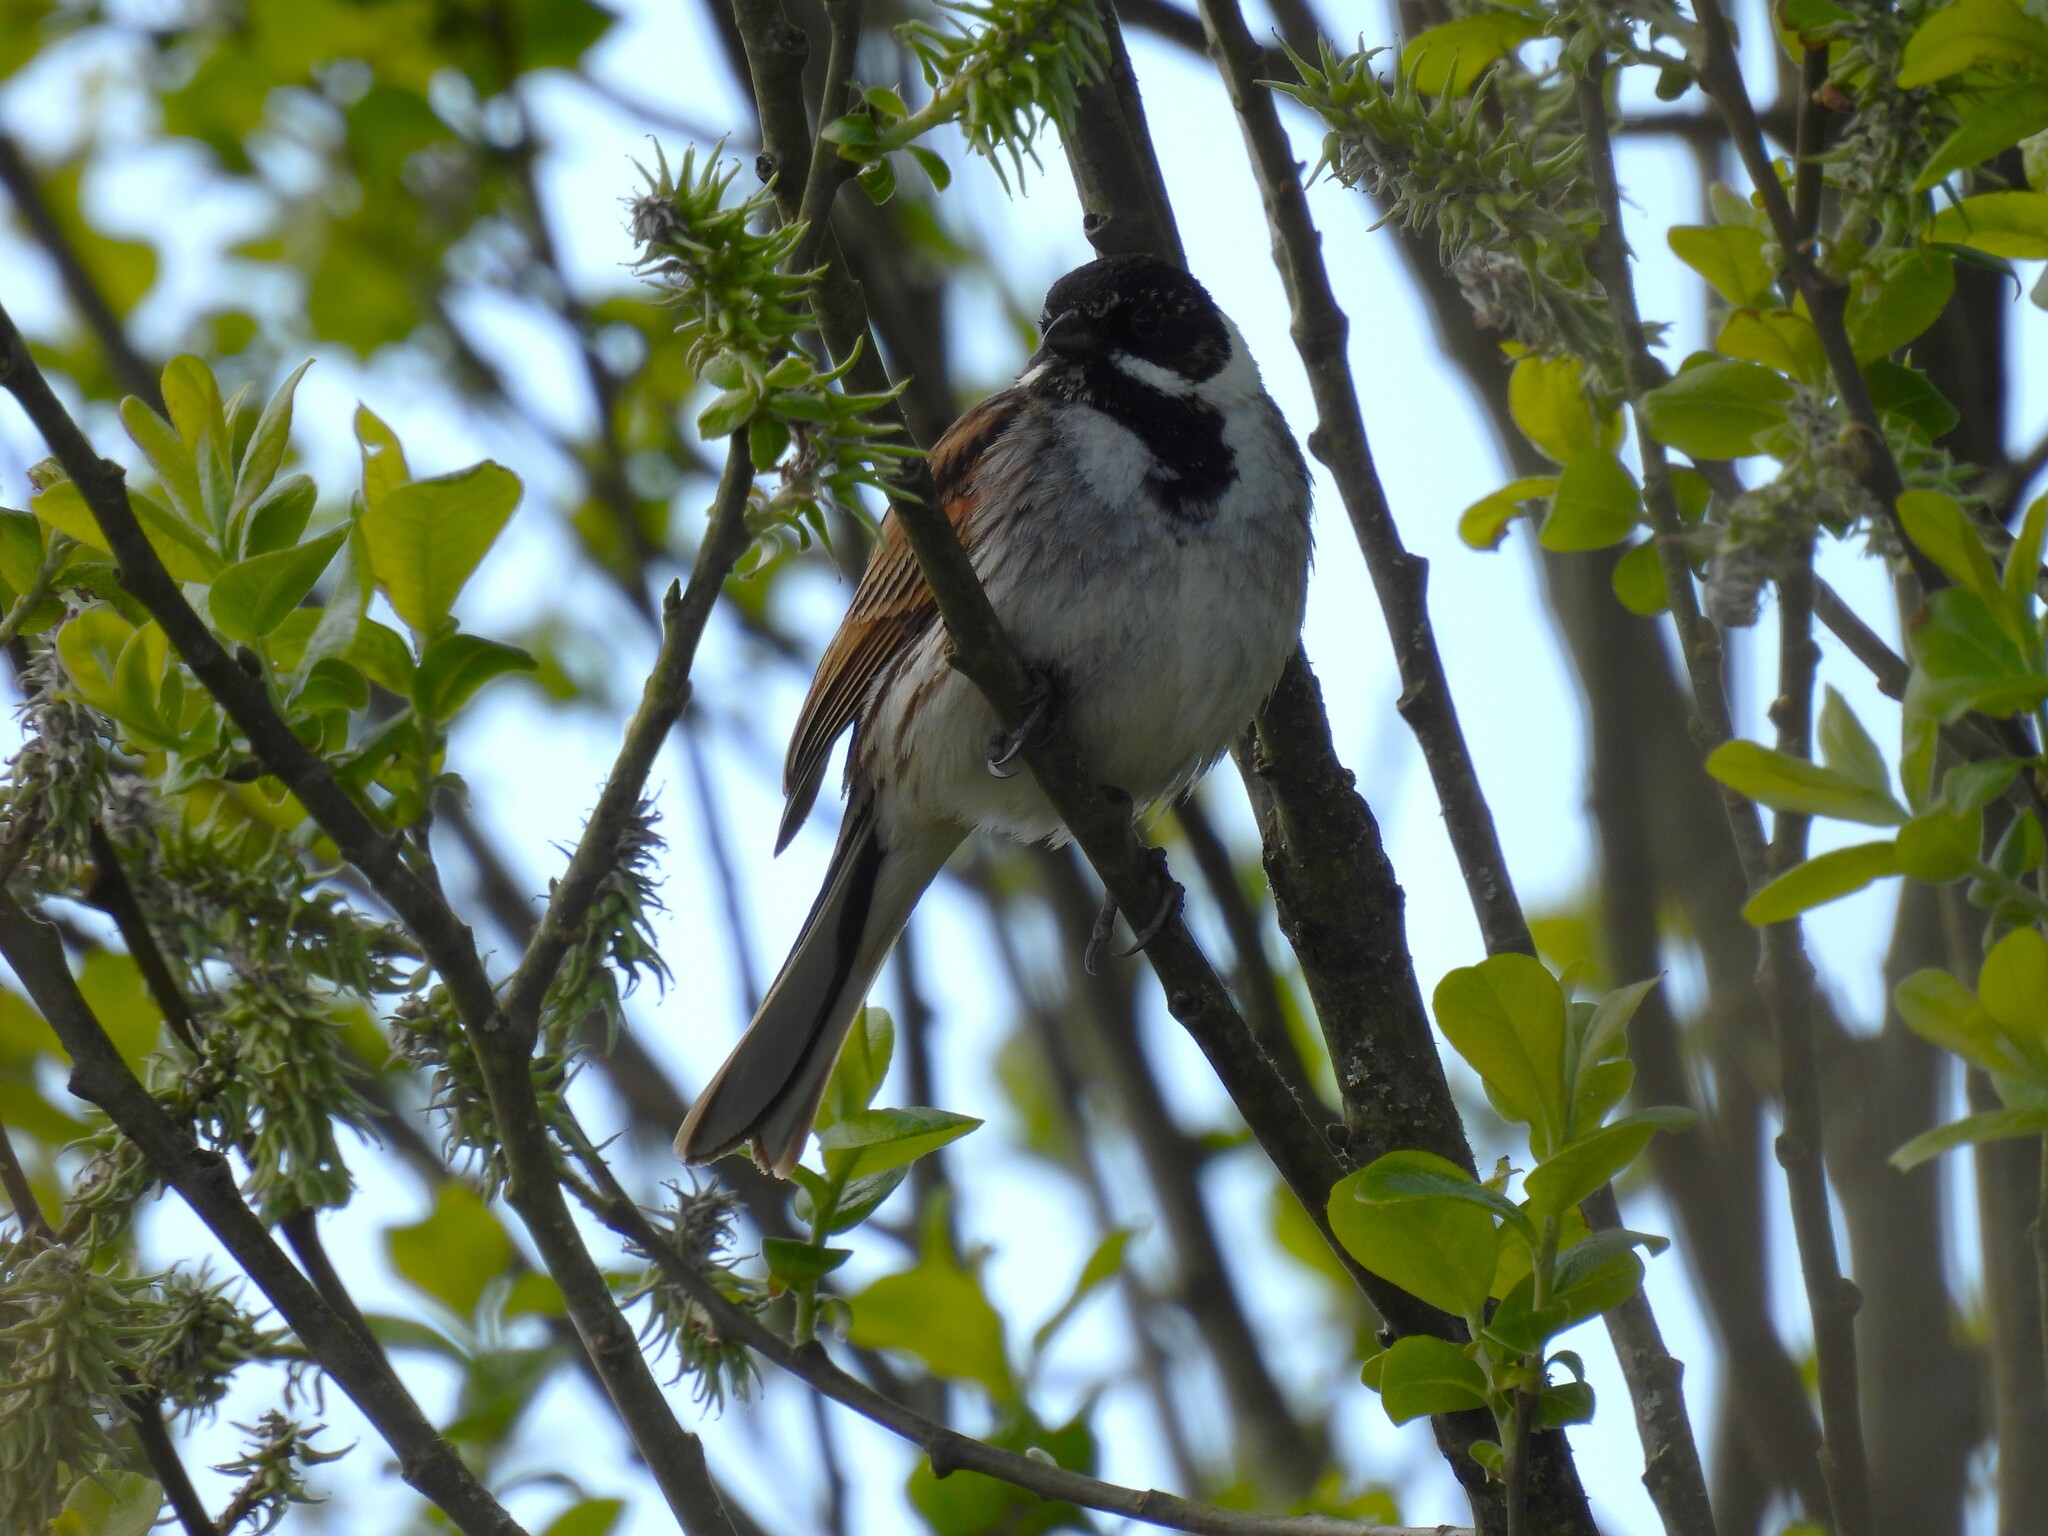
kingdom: Animalia
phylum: Chordata
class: Aves
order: Passeriformes
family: Emberizidae
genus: Emberiza
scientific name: Emberiza schoeniclus
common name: Reed bunting
